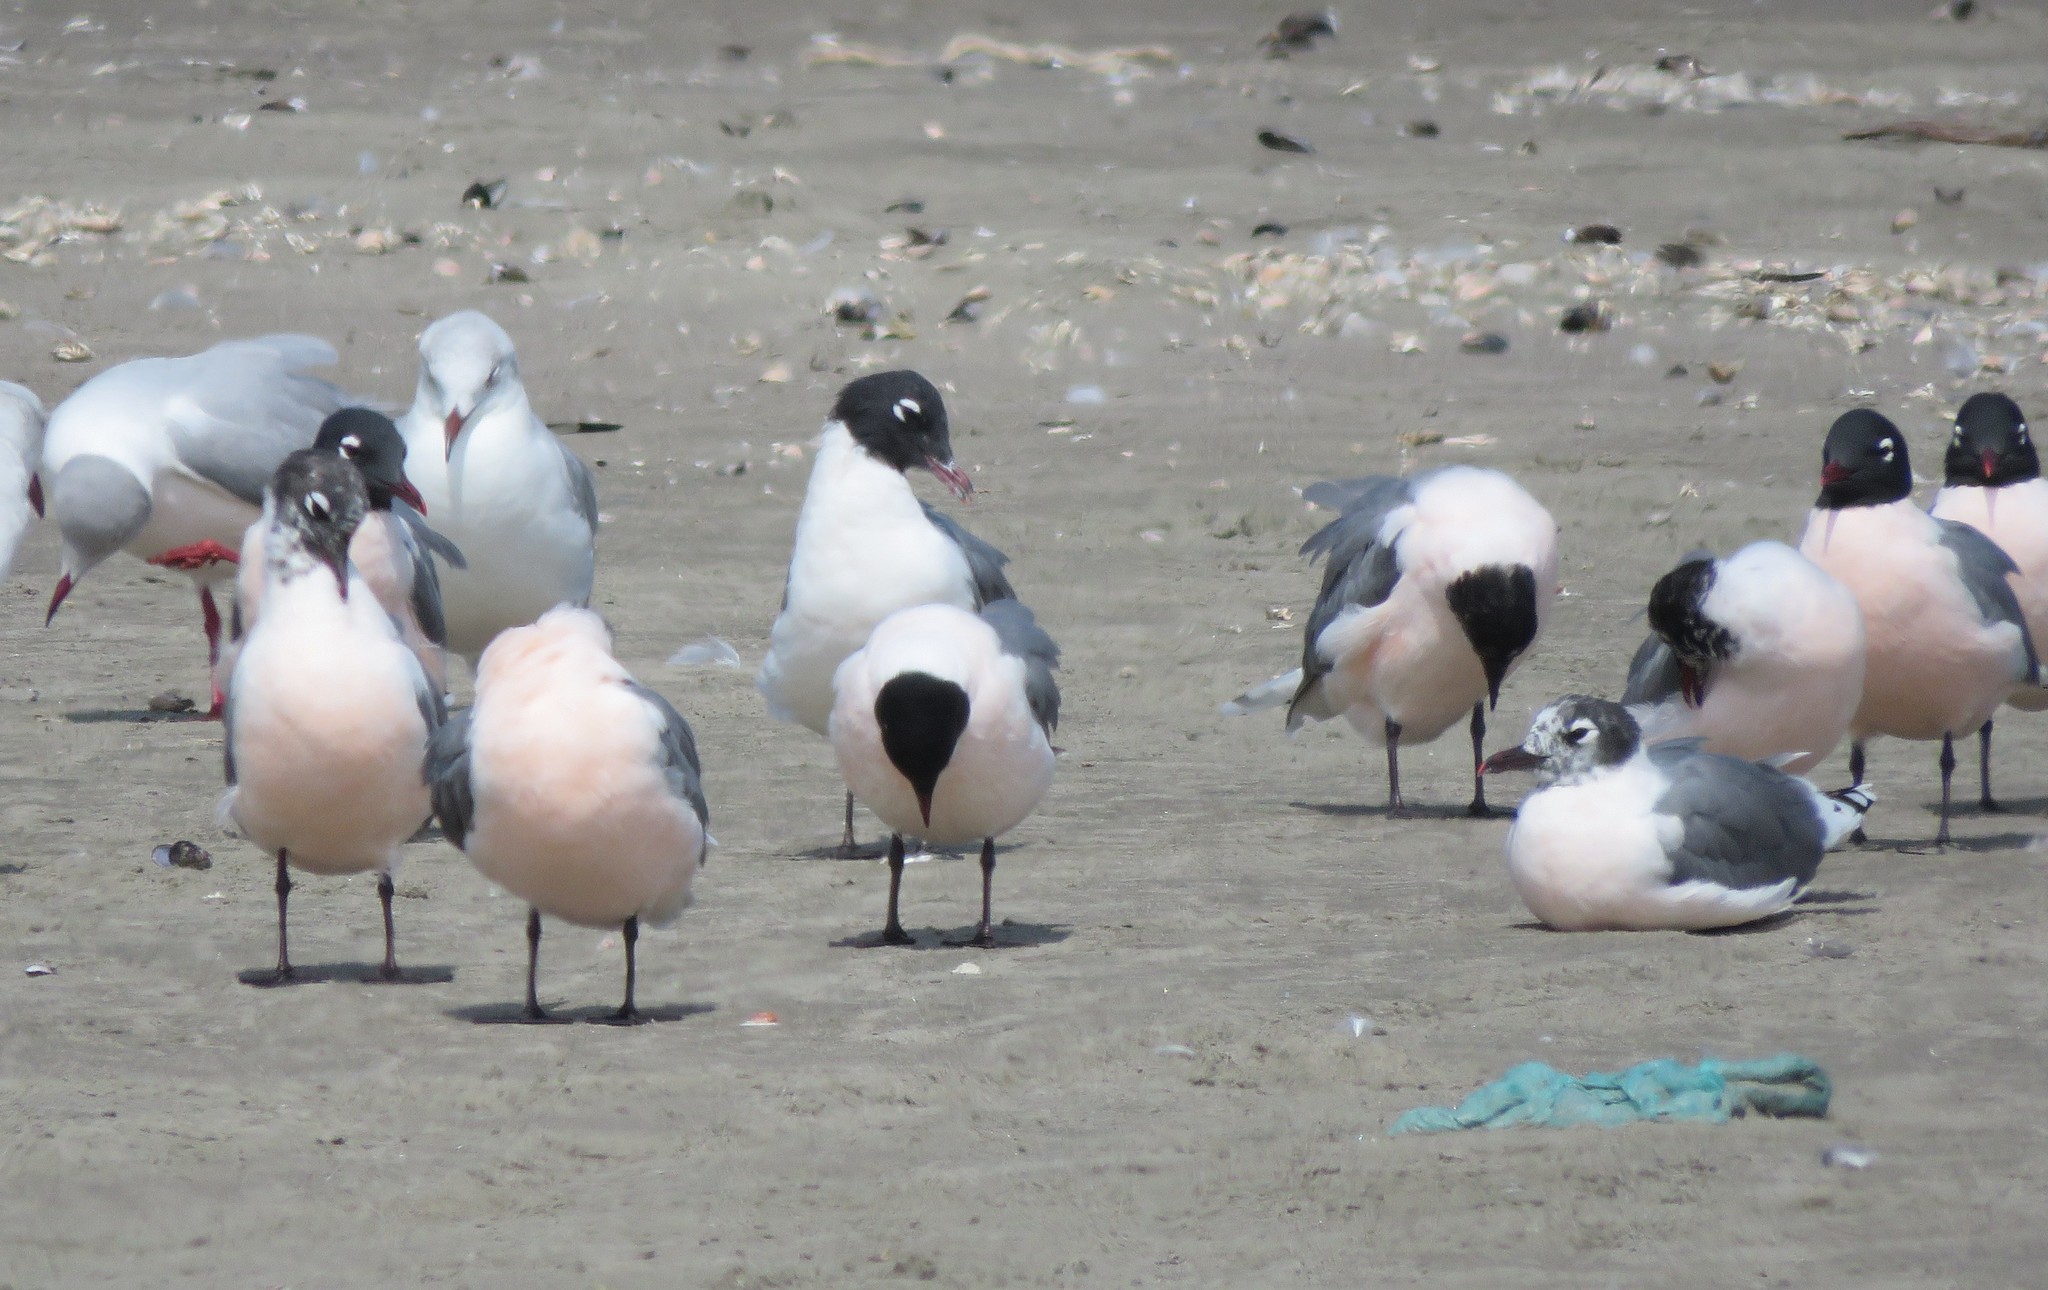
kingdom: Animalia
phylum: Chordata
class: Aves
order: Charadriiformes
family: Laridae
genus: Leucophaeus
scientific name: Leucophaeus pipixcan
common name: Franklin's gull
